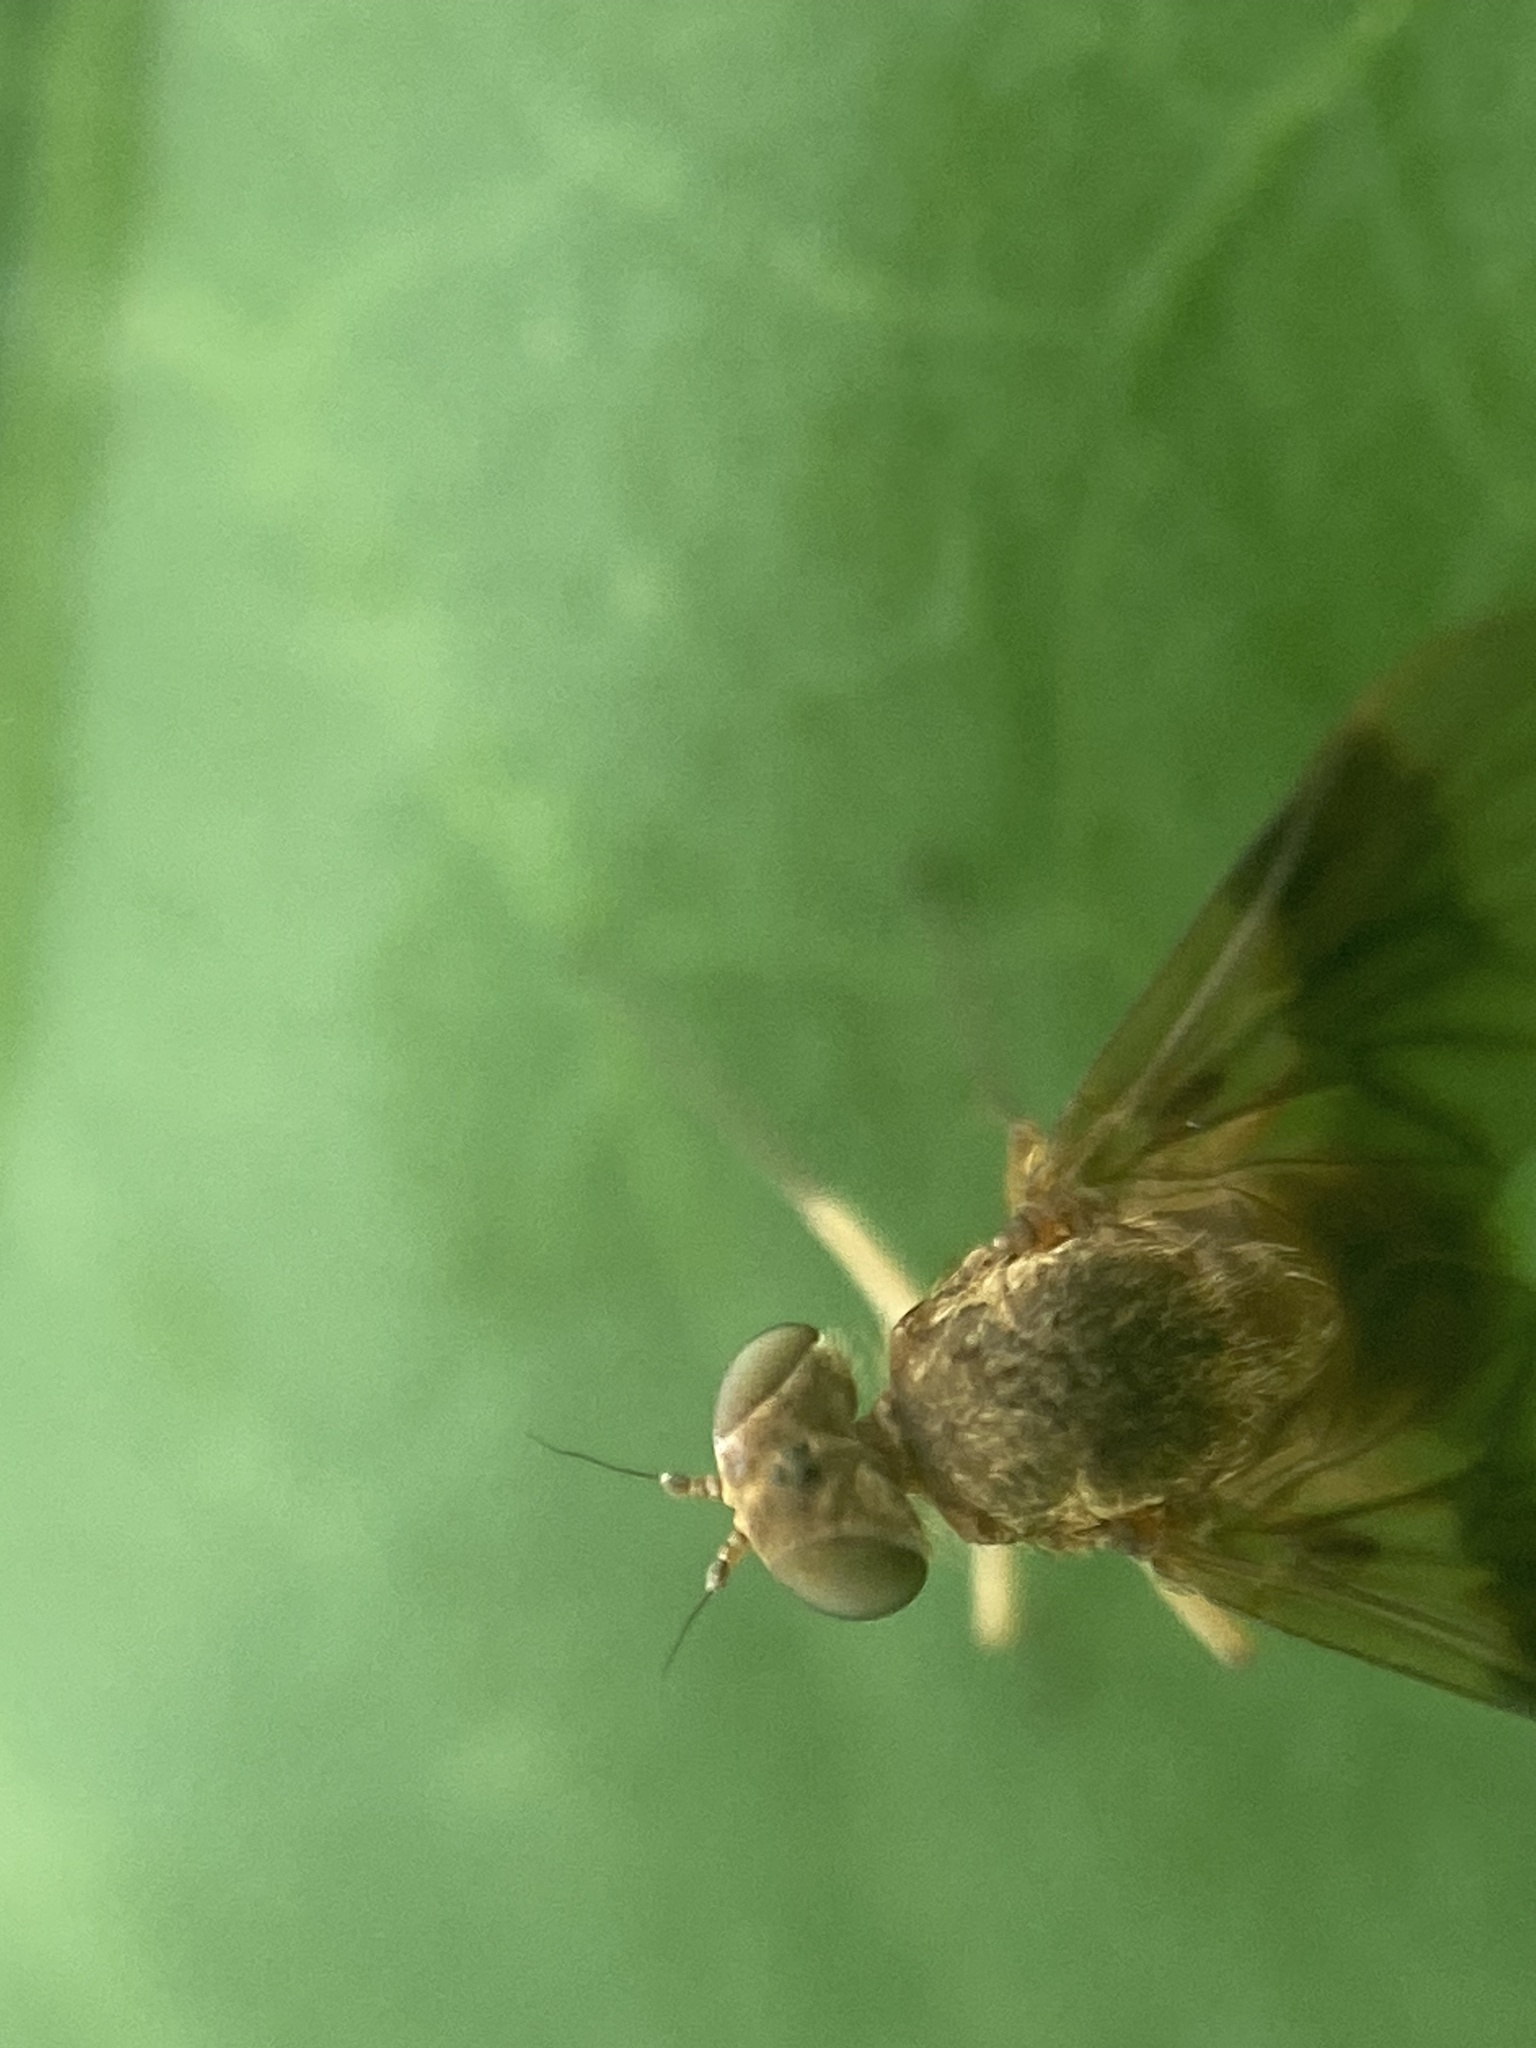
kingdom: Animalia
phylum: Arthropoda
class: Insecta
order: Diptera
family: Rhagionidae
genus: Chrysopilus
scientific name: Chrysopilus quadratus
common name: Quadrate snipe fly
